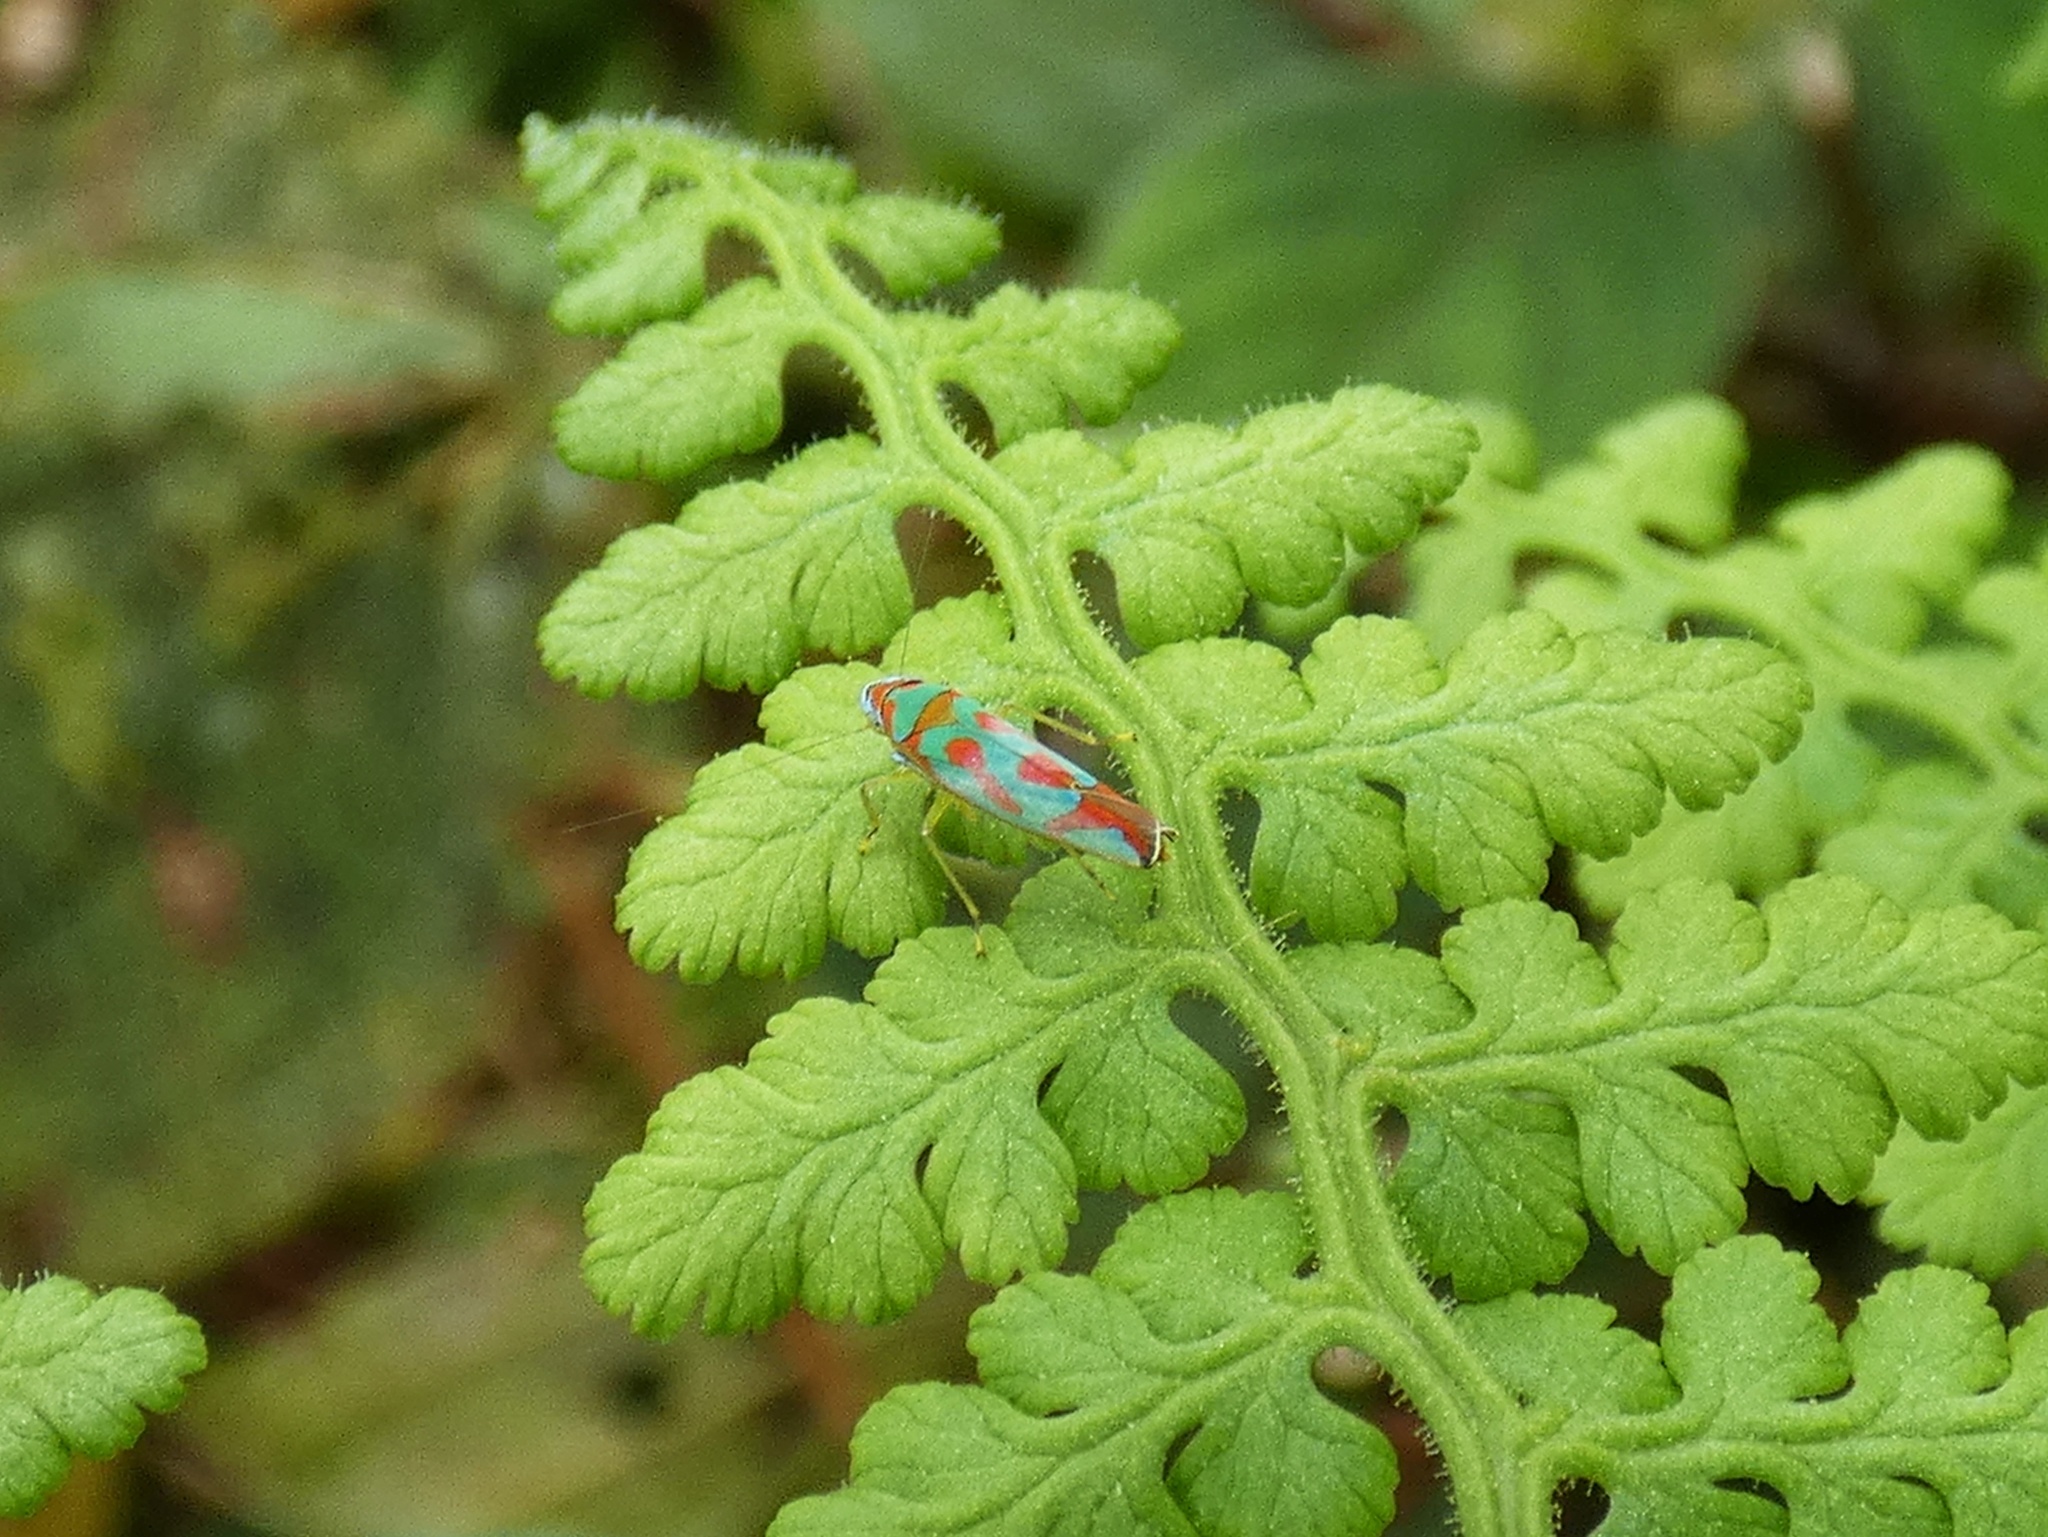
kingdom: Animalia
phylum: Arthropoda
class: Insecta
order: Hemiptera
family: Cicadellidae
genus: Sibovia
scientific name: Sibovia youngi
